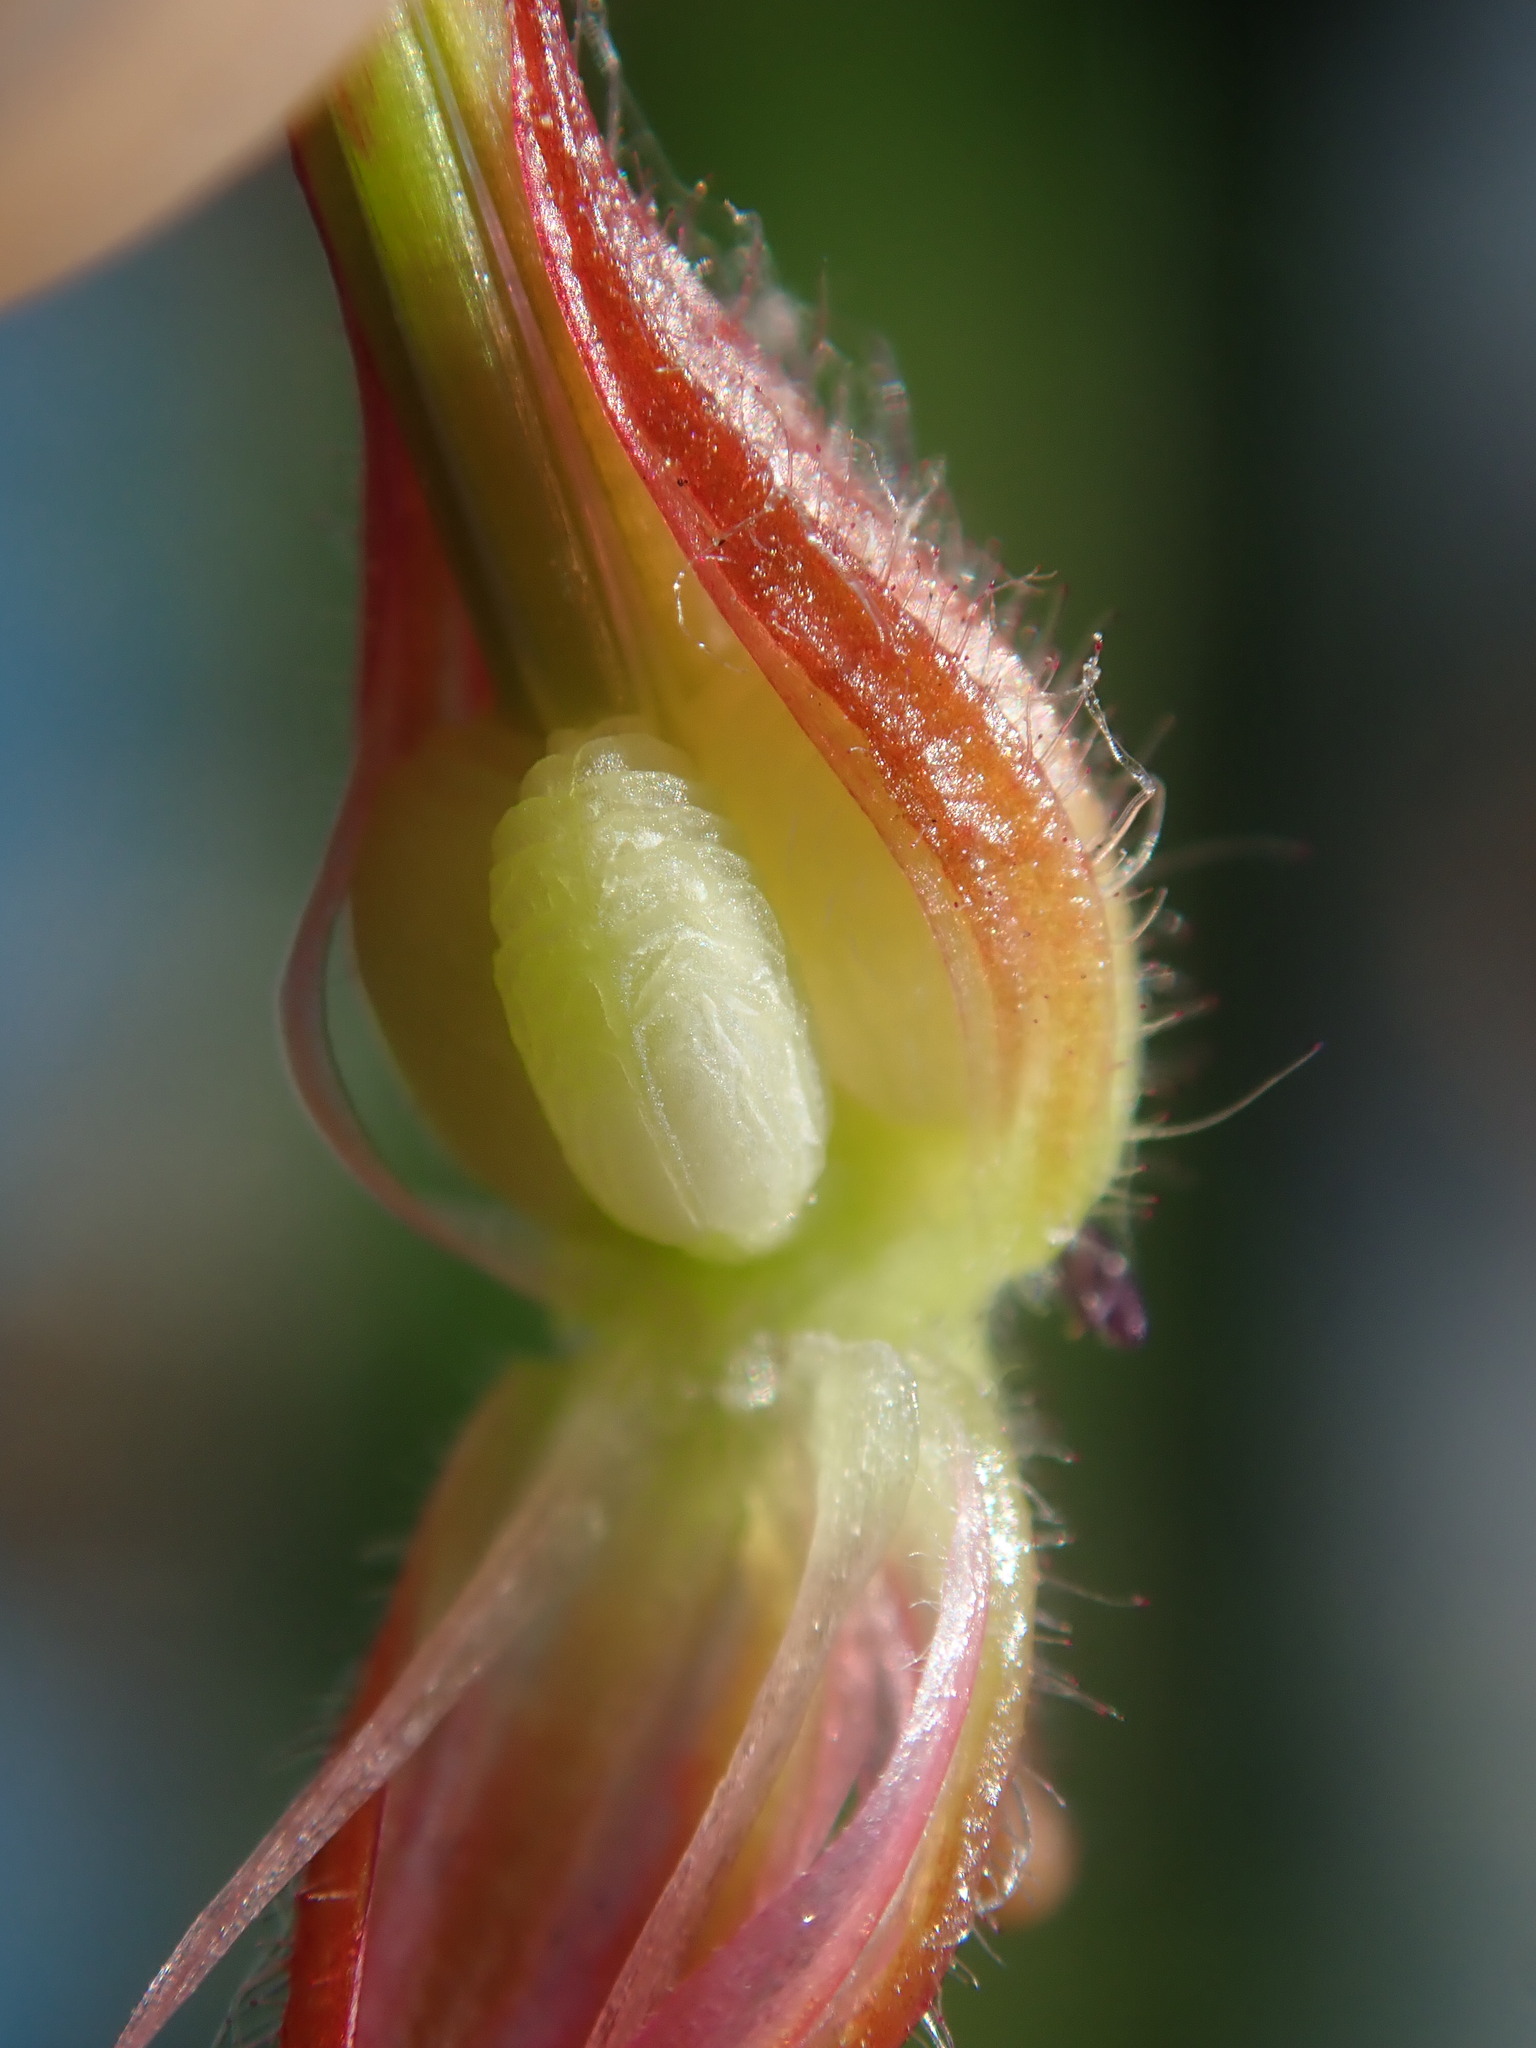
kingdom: Plantae
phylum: Tracheophyta
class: Magnoliopsida
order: Geraniales
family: Geraniaceae
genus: Geranium
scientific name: Geranium purpureum
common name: Little-robin
